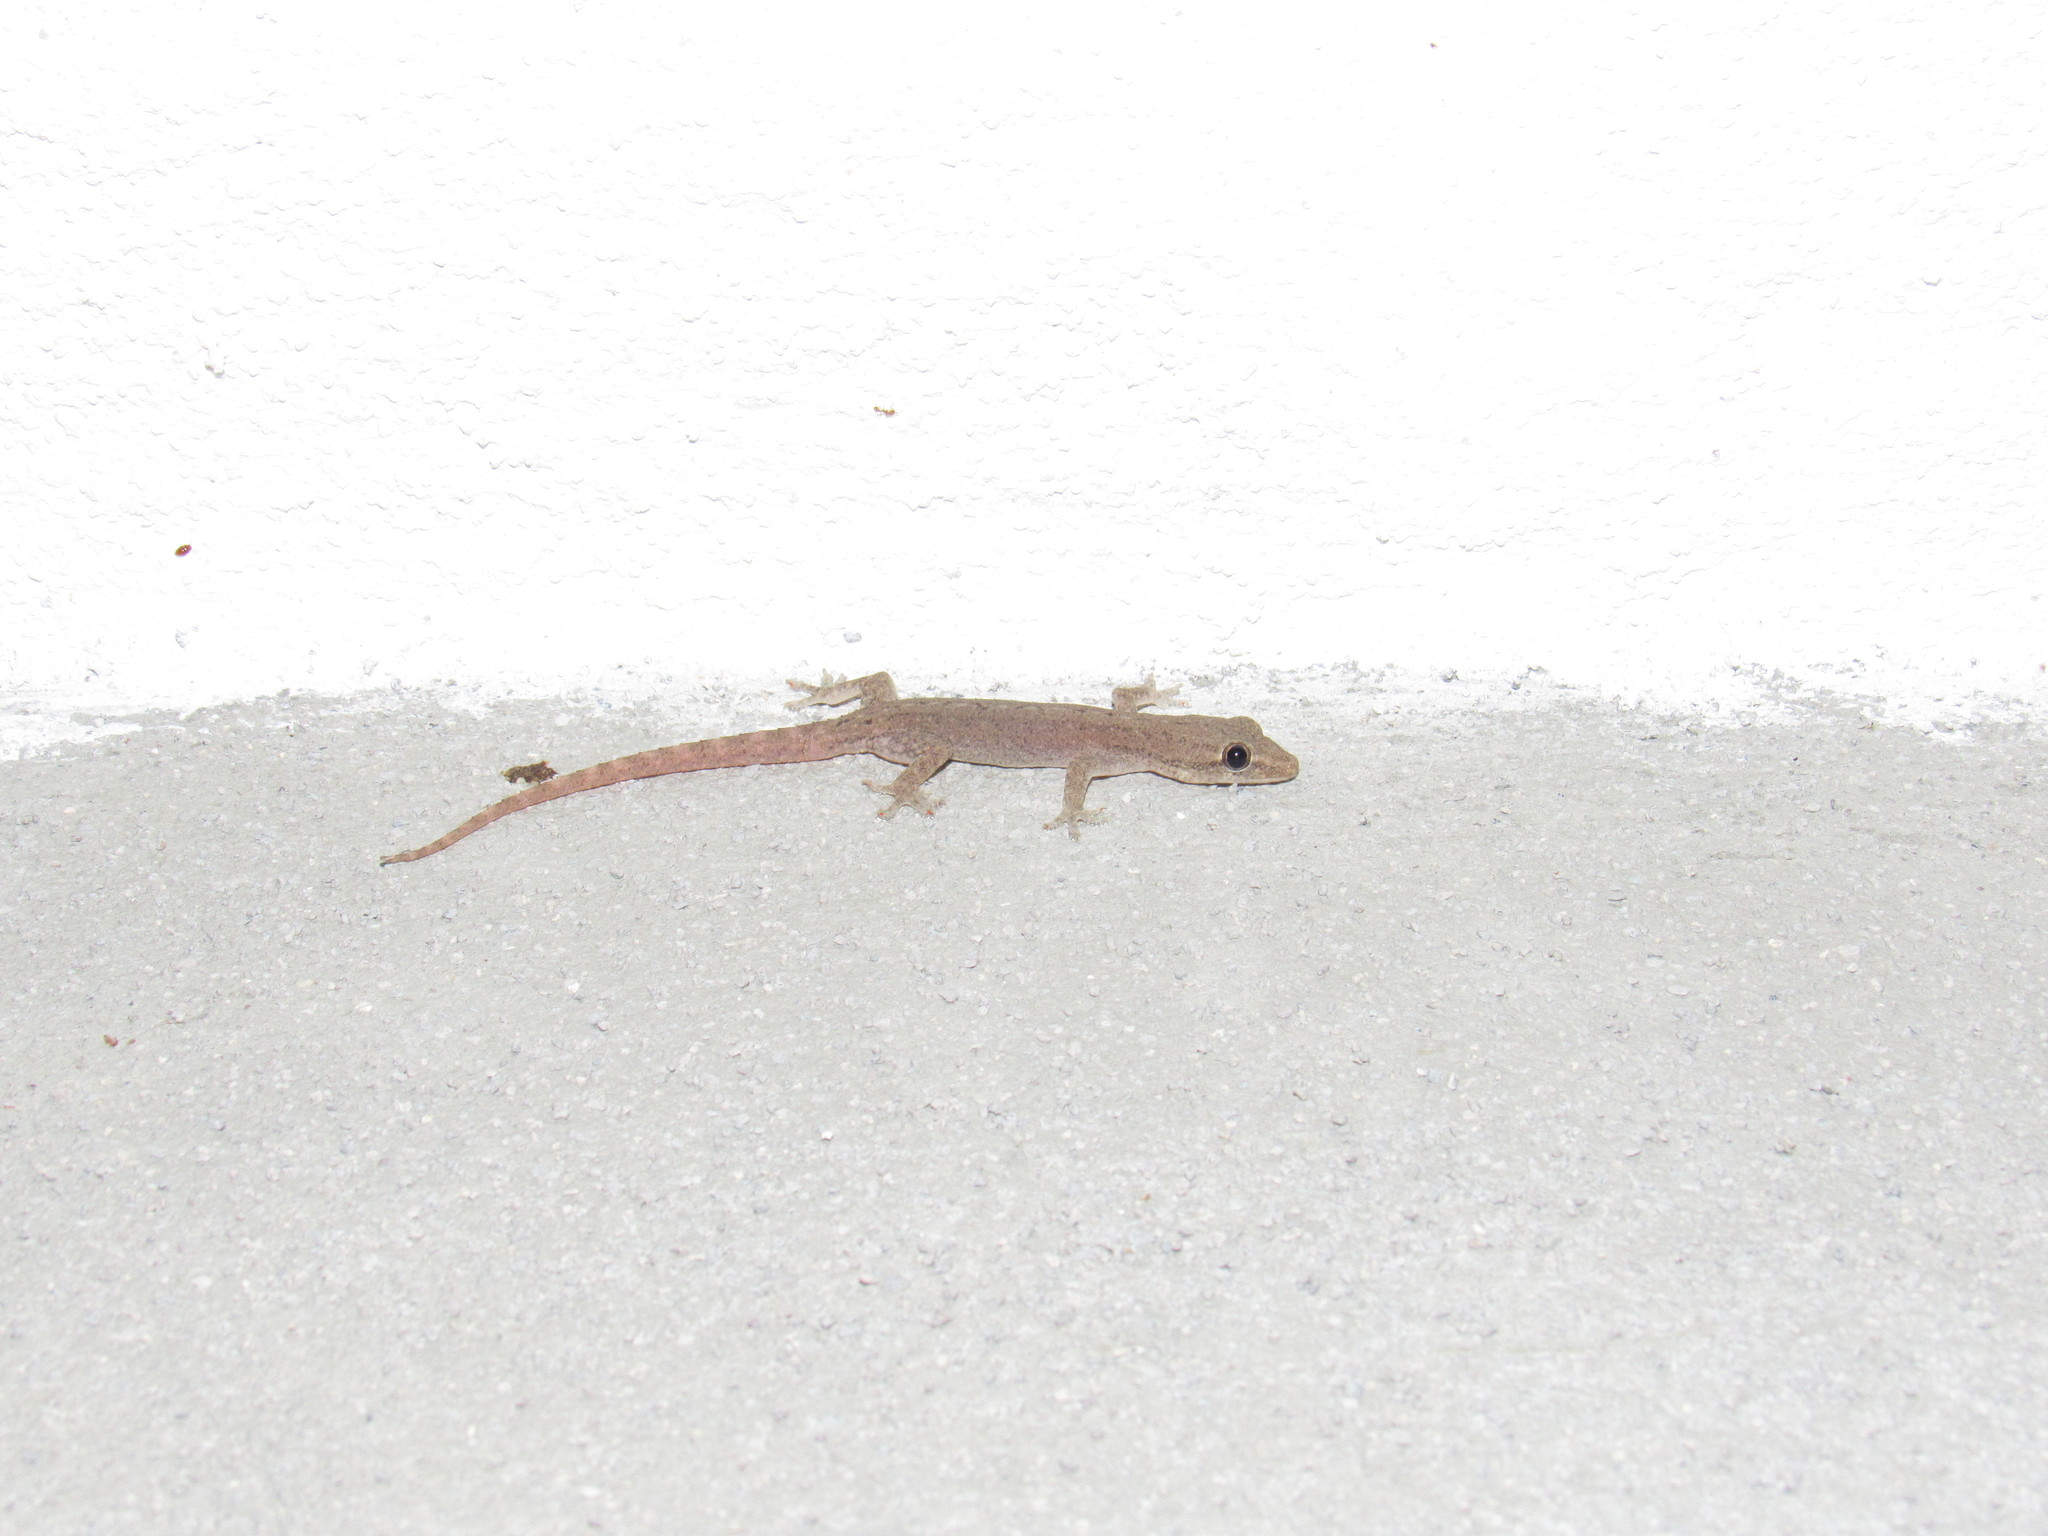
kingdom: Animalia
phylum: Chordata
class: Squamata
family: Gekkonidae
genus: Hemidactylus
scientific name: Hemidactylus frenatus
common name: Common house gecko
